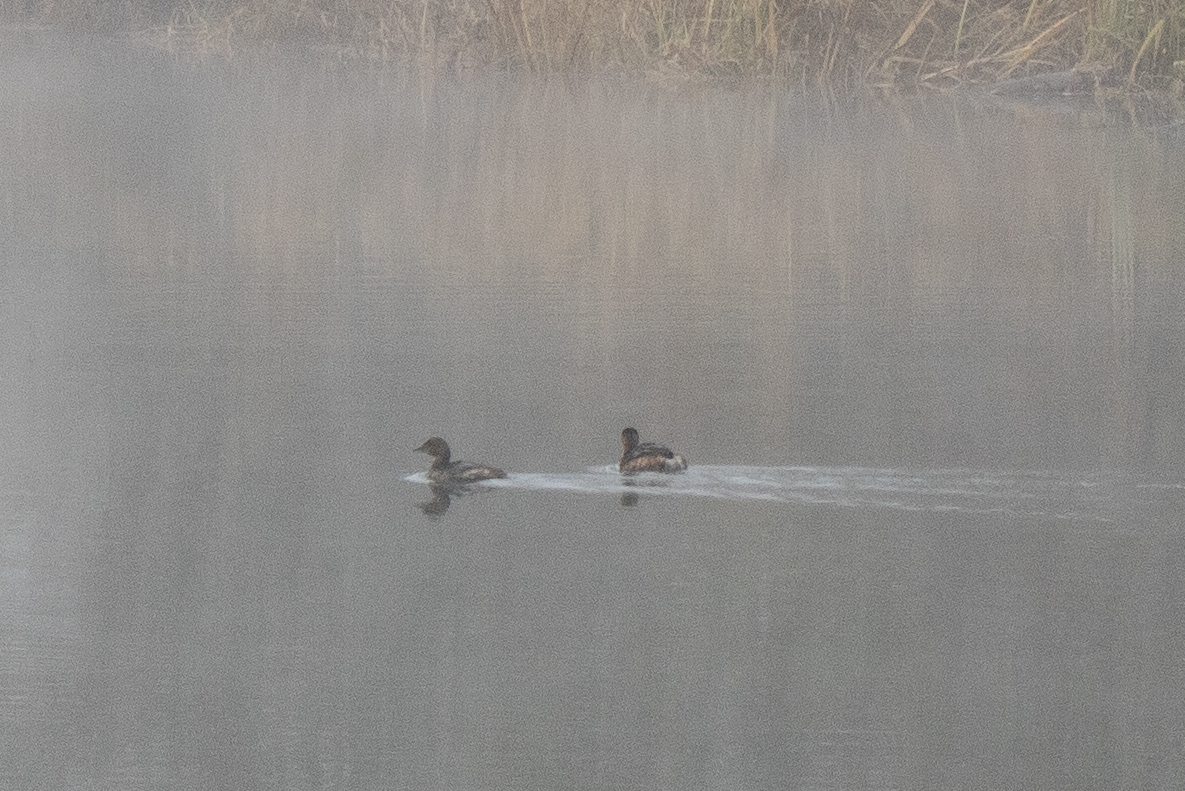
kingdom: Animalia
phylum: Chordata
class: Aves
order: Podicipediformes
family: Podicipedidae
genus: Podilymbus
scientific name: Podilymbus podiceps
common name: Pied-billed grebe
